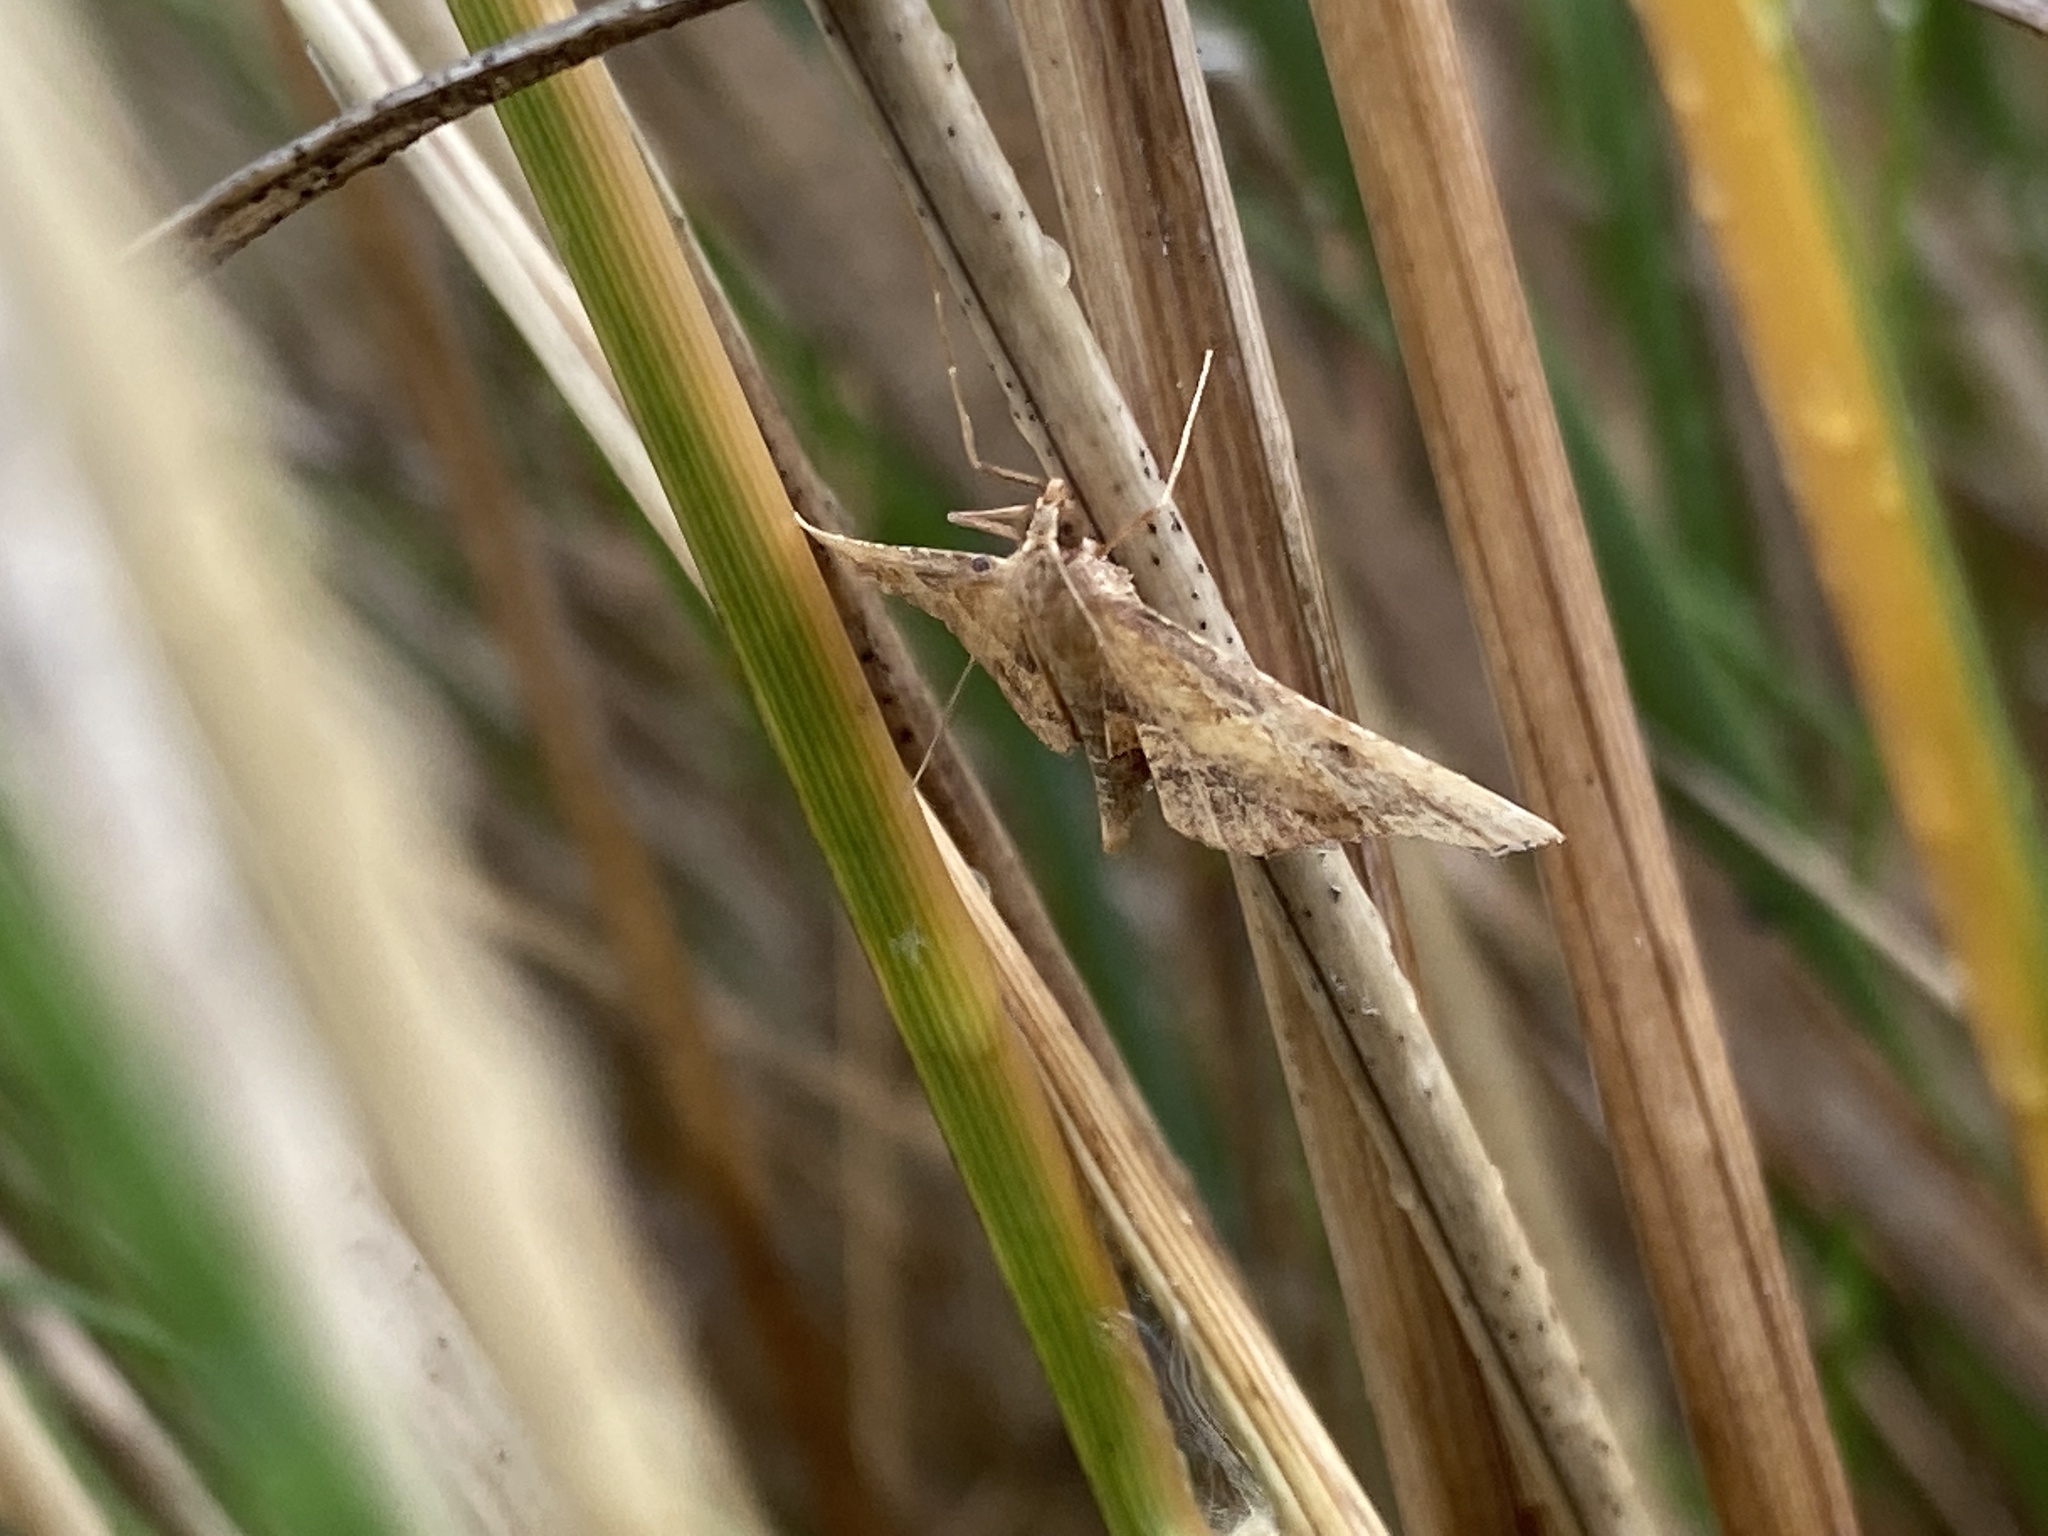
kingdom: Animalia
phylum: Arthropoda
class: Insecta
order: Lepidoptera
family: Pyralidae
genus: Endotricha
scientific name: Endotricha flammealis
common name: Rosy tabby
